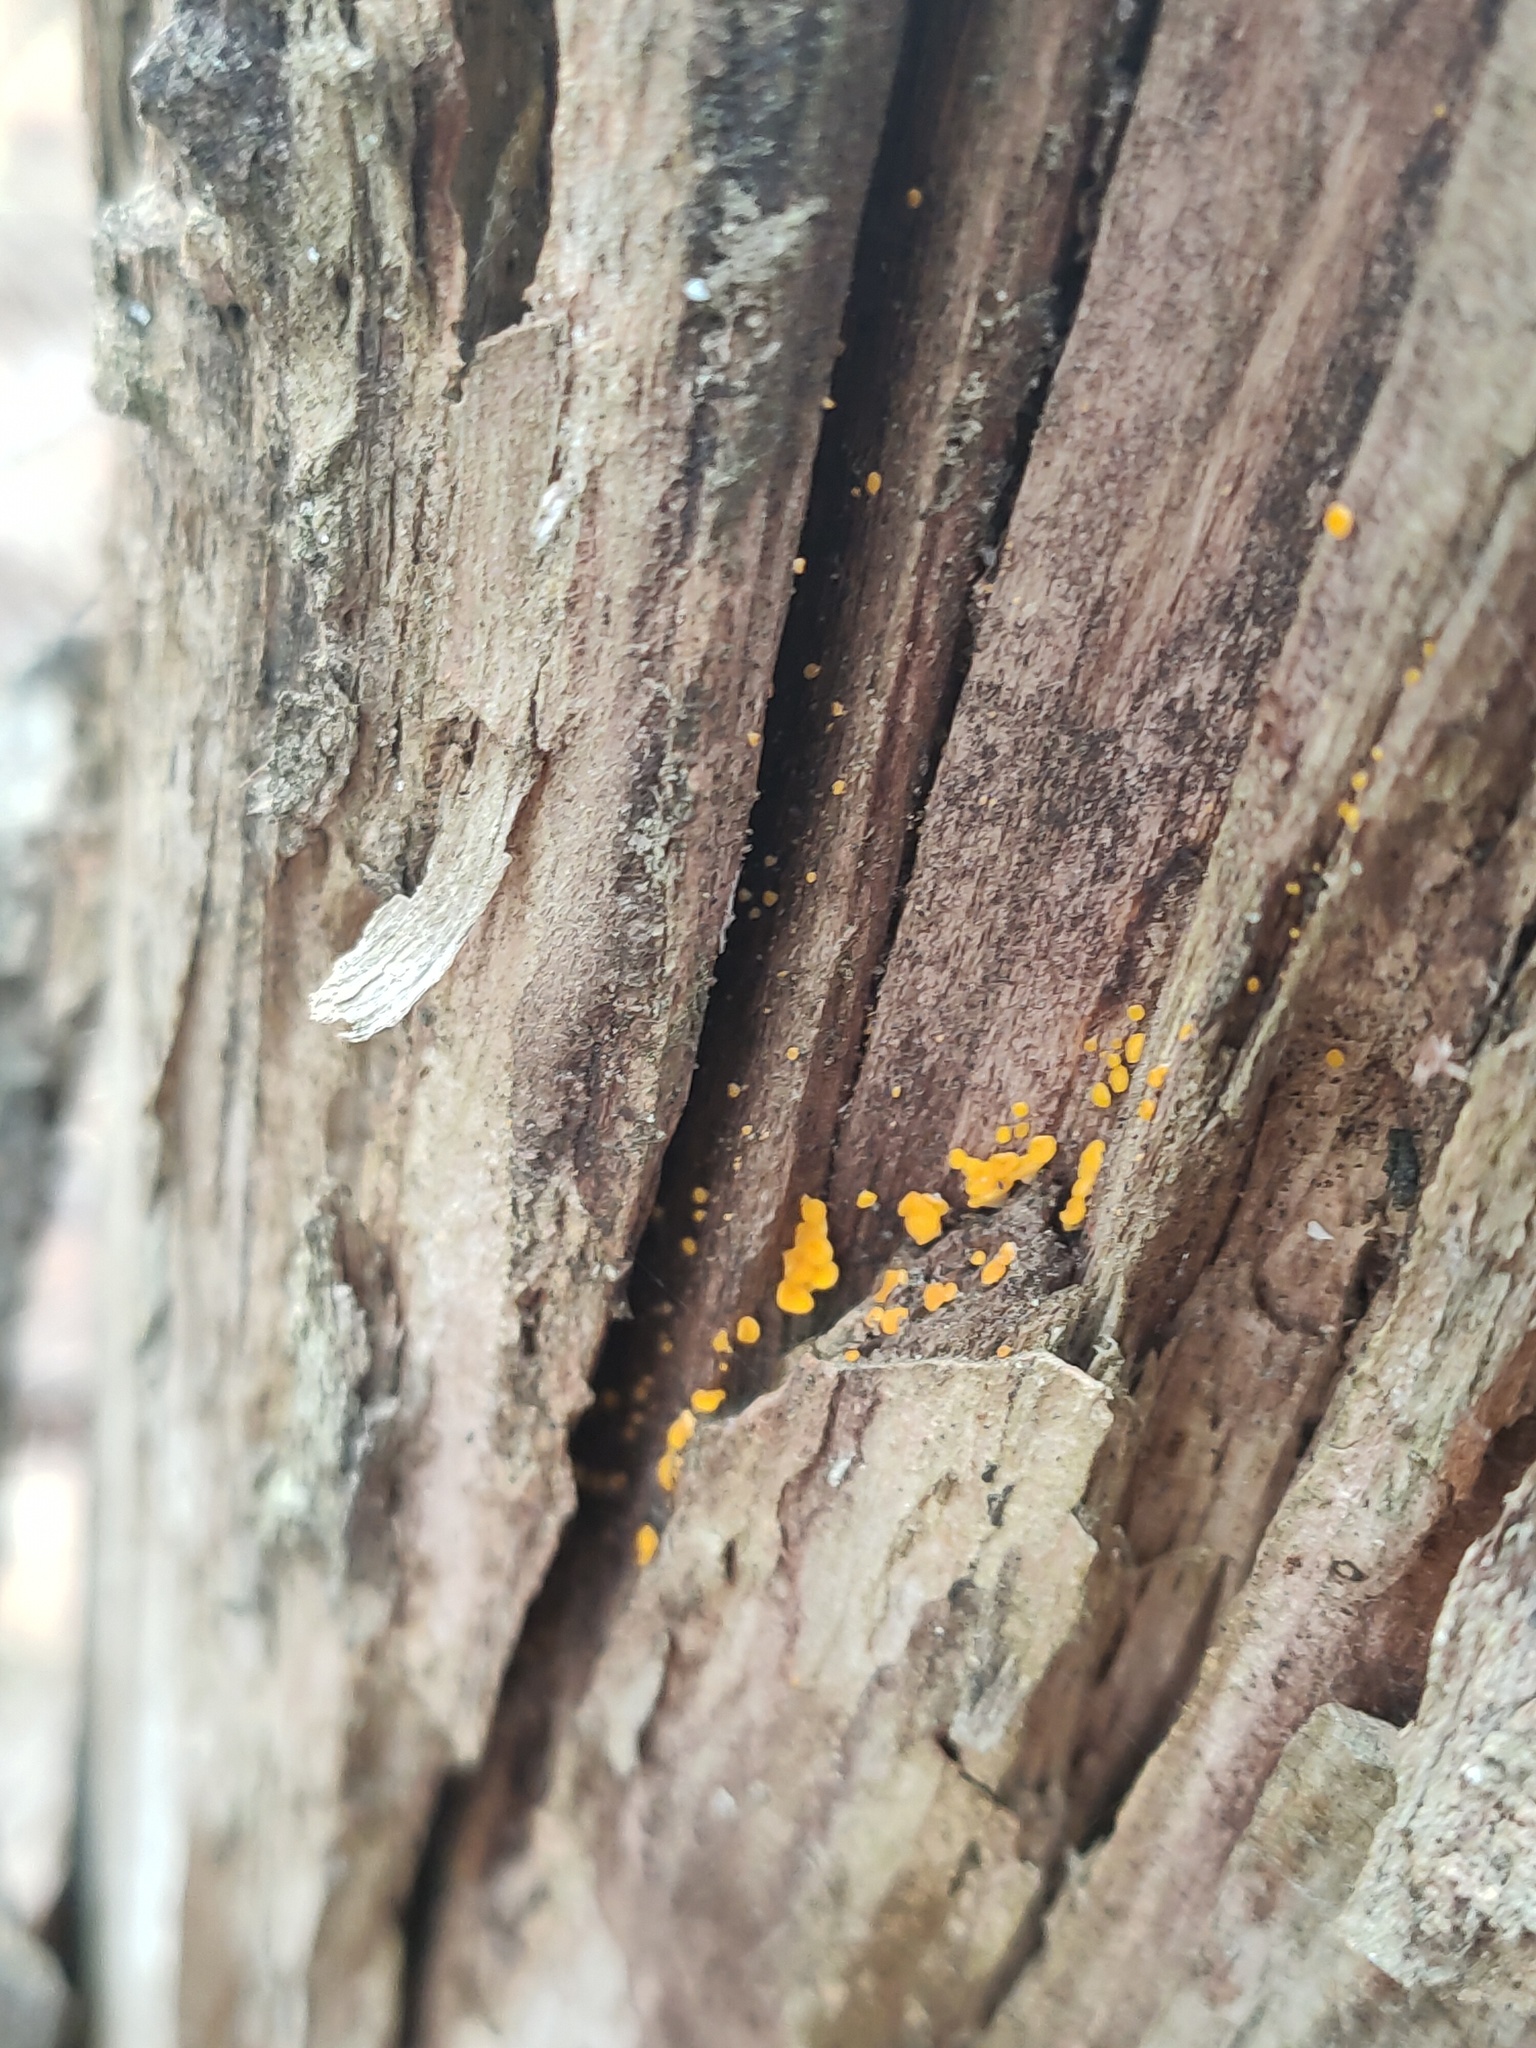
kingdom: Fungi
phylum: Ascomycota
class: Leotiomycetes
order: Helotiales
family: Pezizellaceae
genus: Calycina
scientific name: Calycina citrina
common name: Yellow fairy cups
